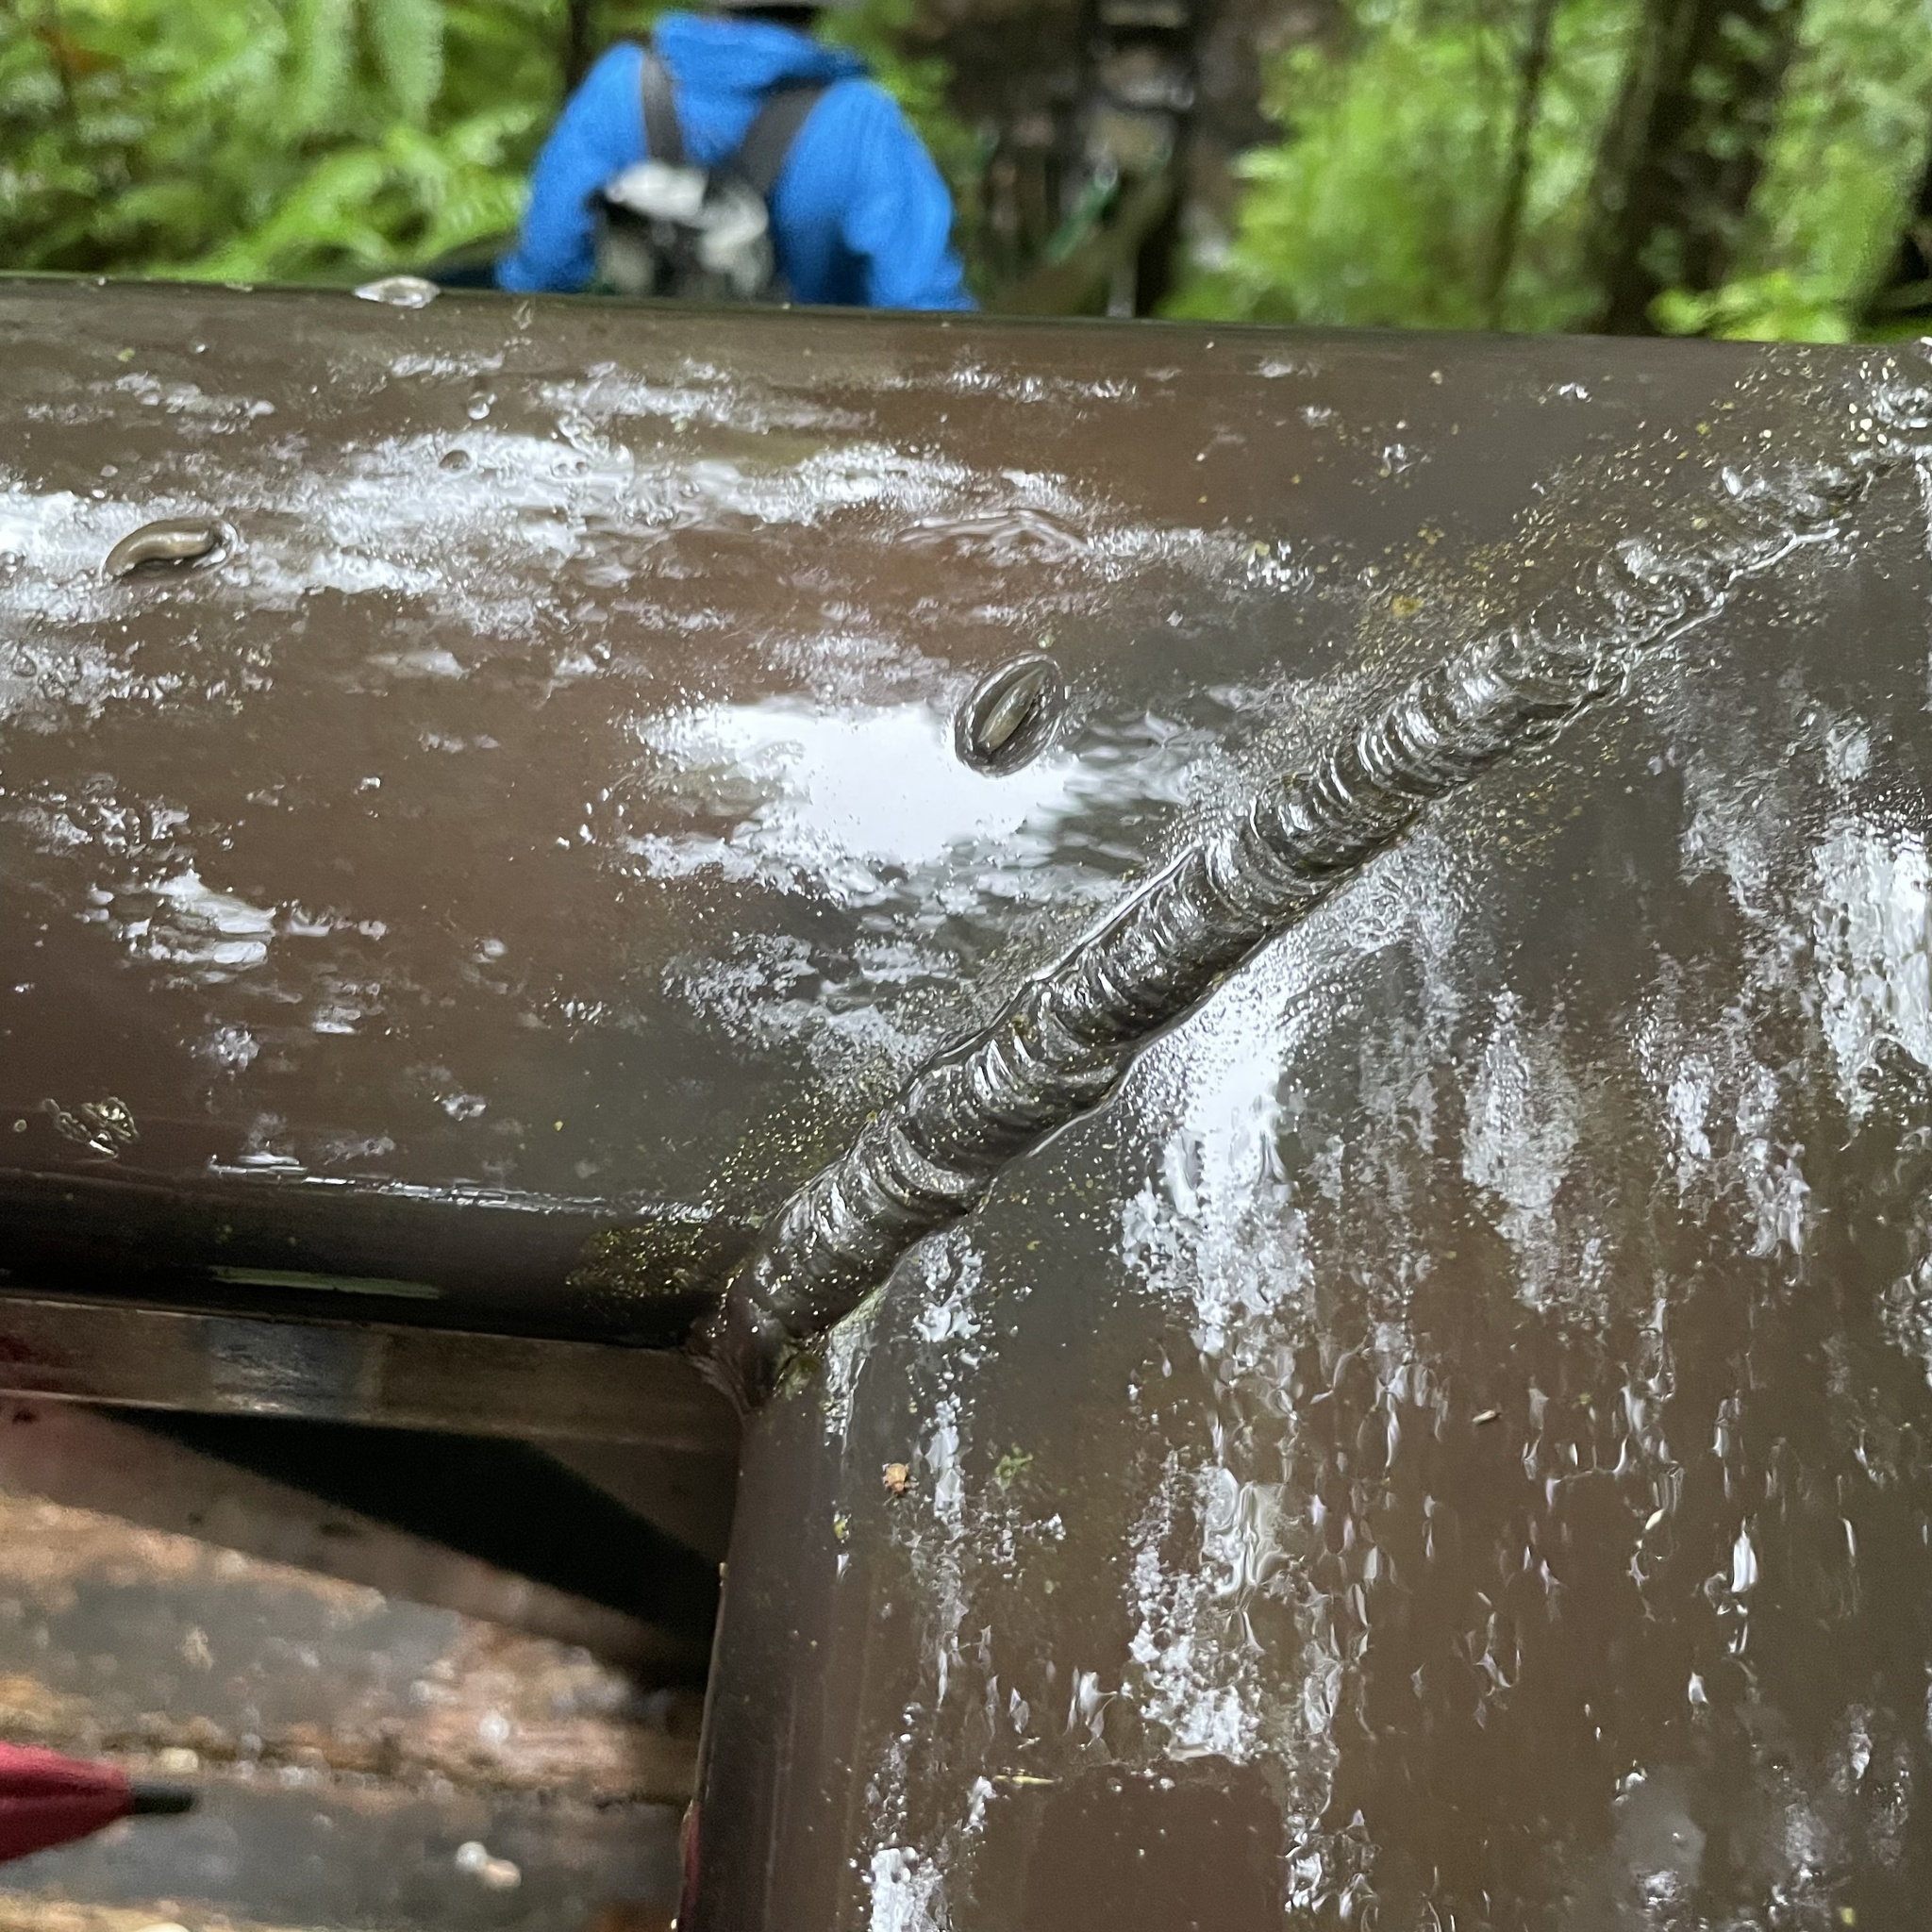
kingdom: Animalia
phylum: Mollusca
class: Gastropoda
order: Stylommatophora
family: Philomycidae
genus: Meghimatium
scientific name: Meghimatium bilineatum
